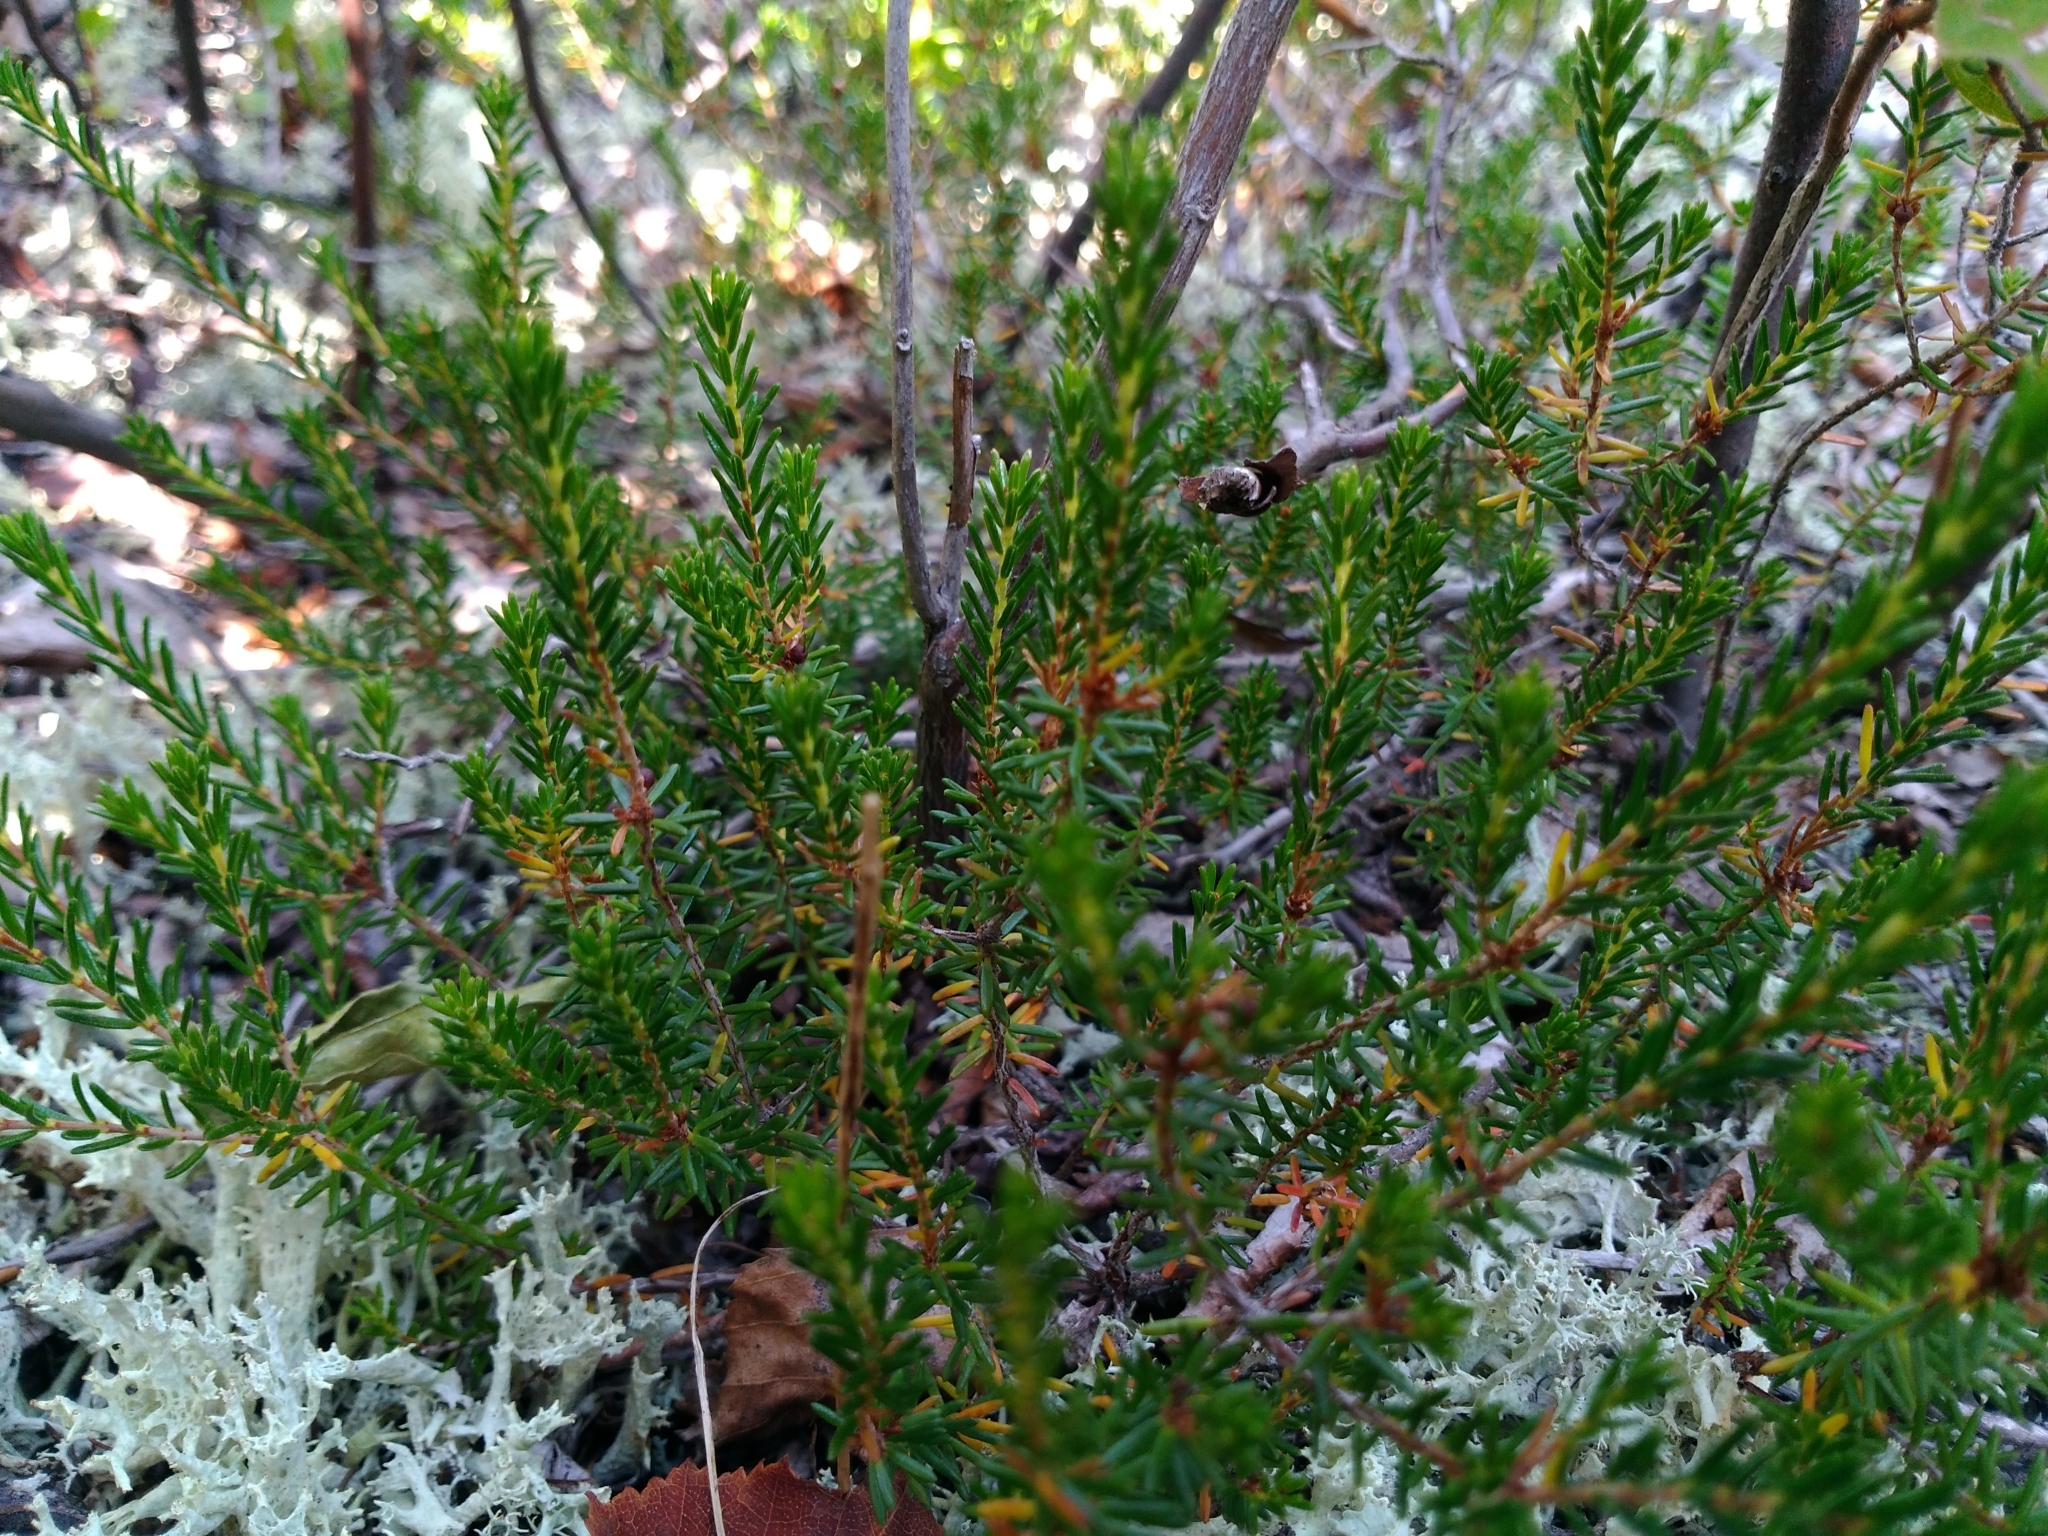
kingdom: Plantae
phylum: Tracheophyta
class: Magnoliopsida
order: Ericales
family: Ericaceae
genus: Corema
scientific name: Corema conradii
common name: Broom-crowberry
